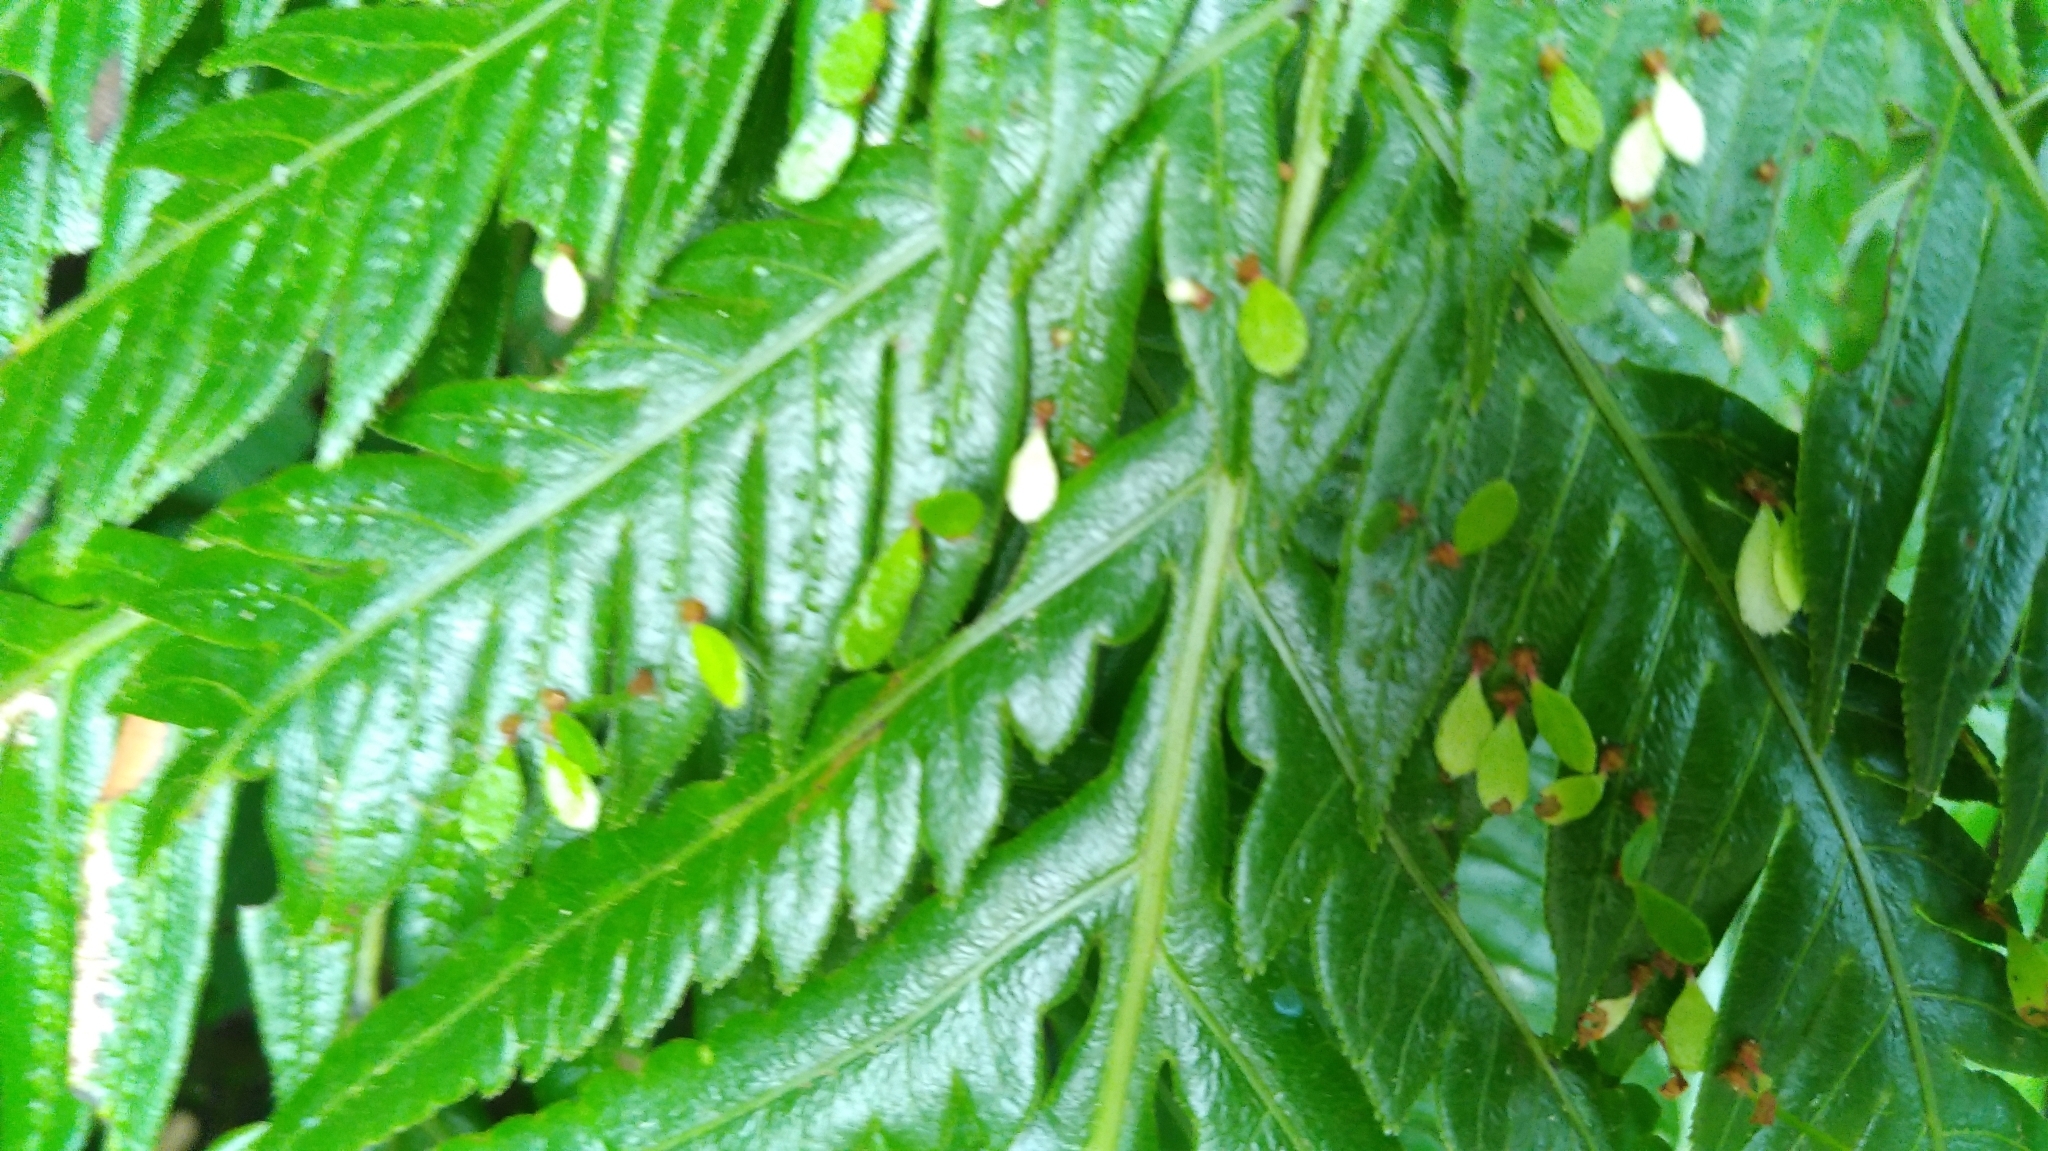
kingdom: Plantae
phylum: Tracheophyta
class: Polypodiopsida
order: Polypodiales
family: Blechnaceae
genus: Woodwardia
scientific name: Woodwardia prolifera
